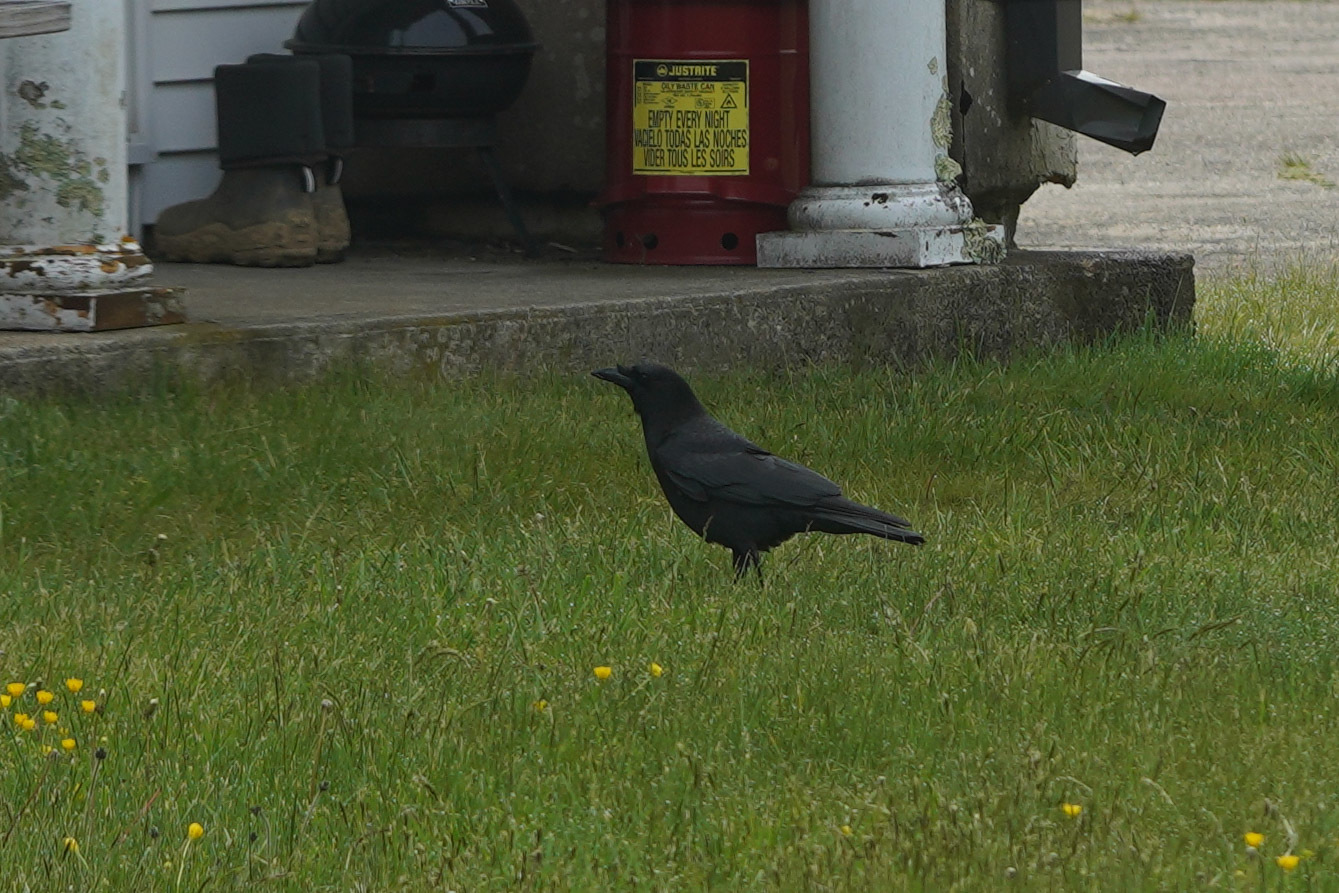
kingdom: Animalia
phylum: Chordata
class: Aves
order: Passeriformes
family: Corvidae
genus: Corvus
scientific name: Corvus corax
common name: Common raven
